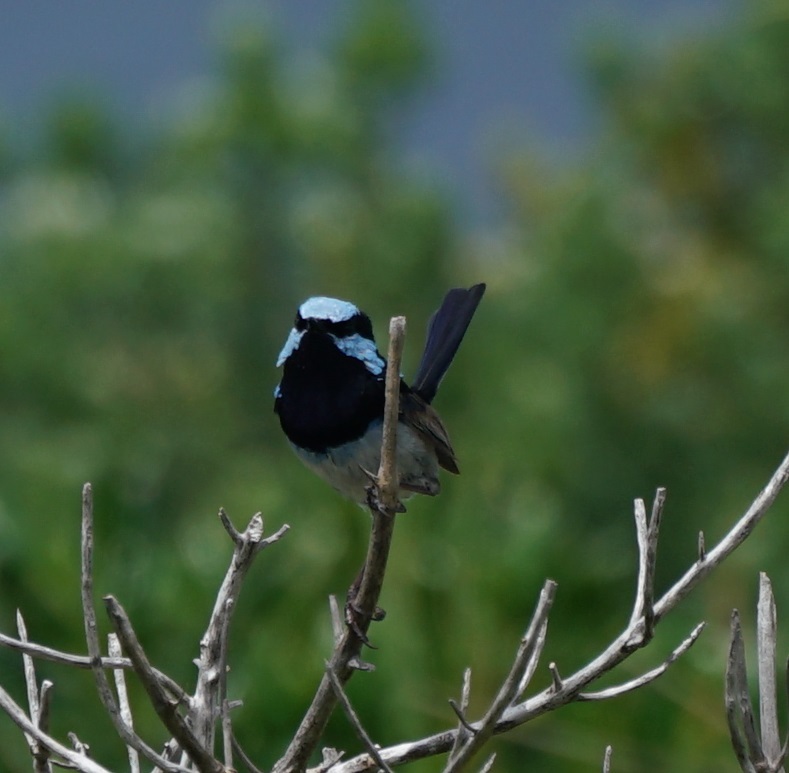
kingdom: Animalia
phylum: Chordata
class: Aves
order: Passeriformes
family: Maluridae
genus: Malurus
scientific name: Malurus cyaneus
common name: Superb fairywren
